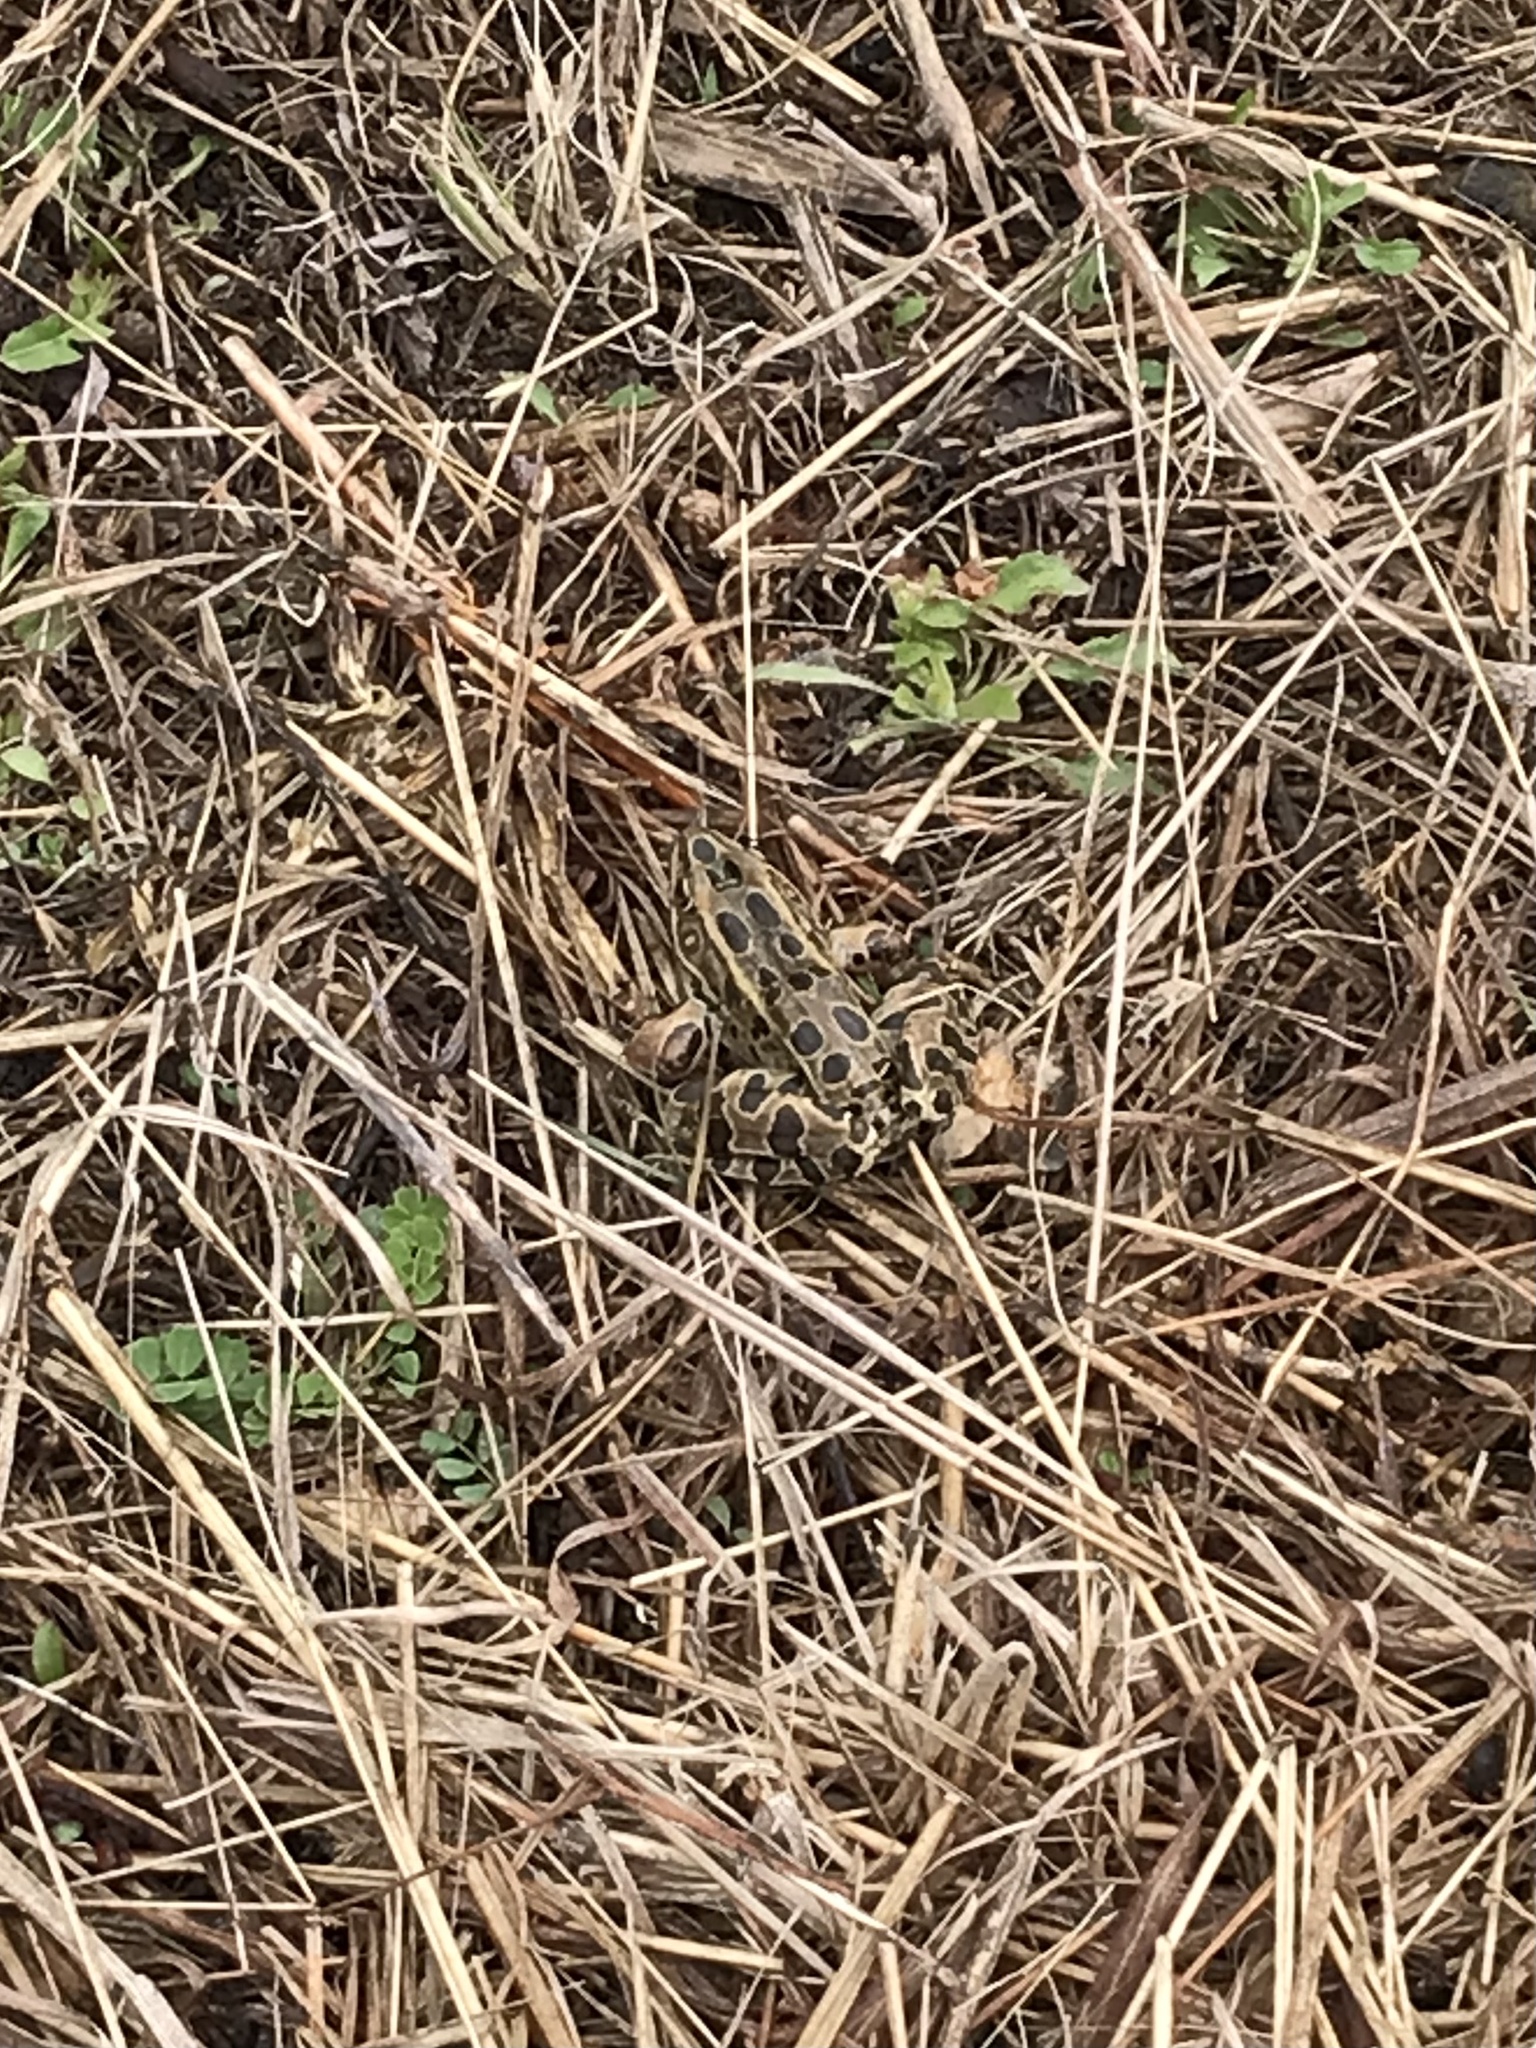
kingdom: Animalia
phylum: Chordata
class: Amphibia
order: Anura
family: Ranidae
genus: Lithobates
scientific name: Lithobates pipiens
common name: Northern leopard frog
